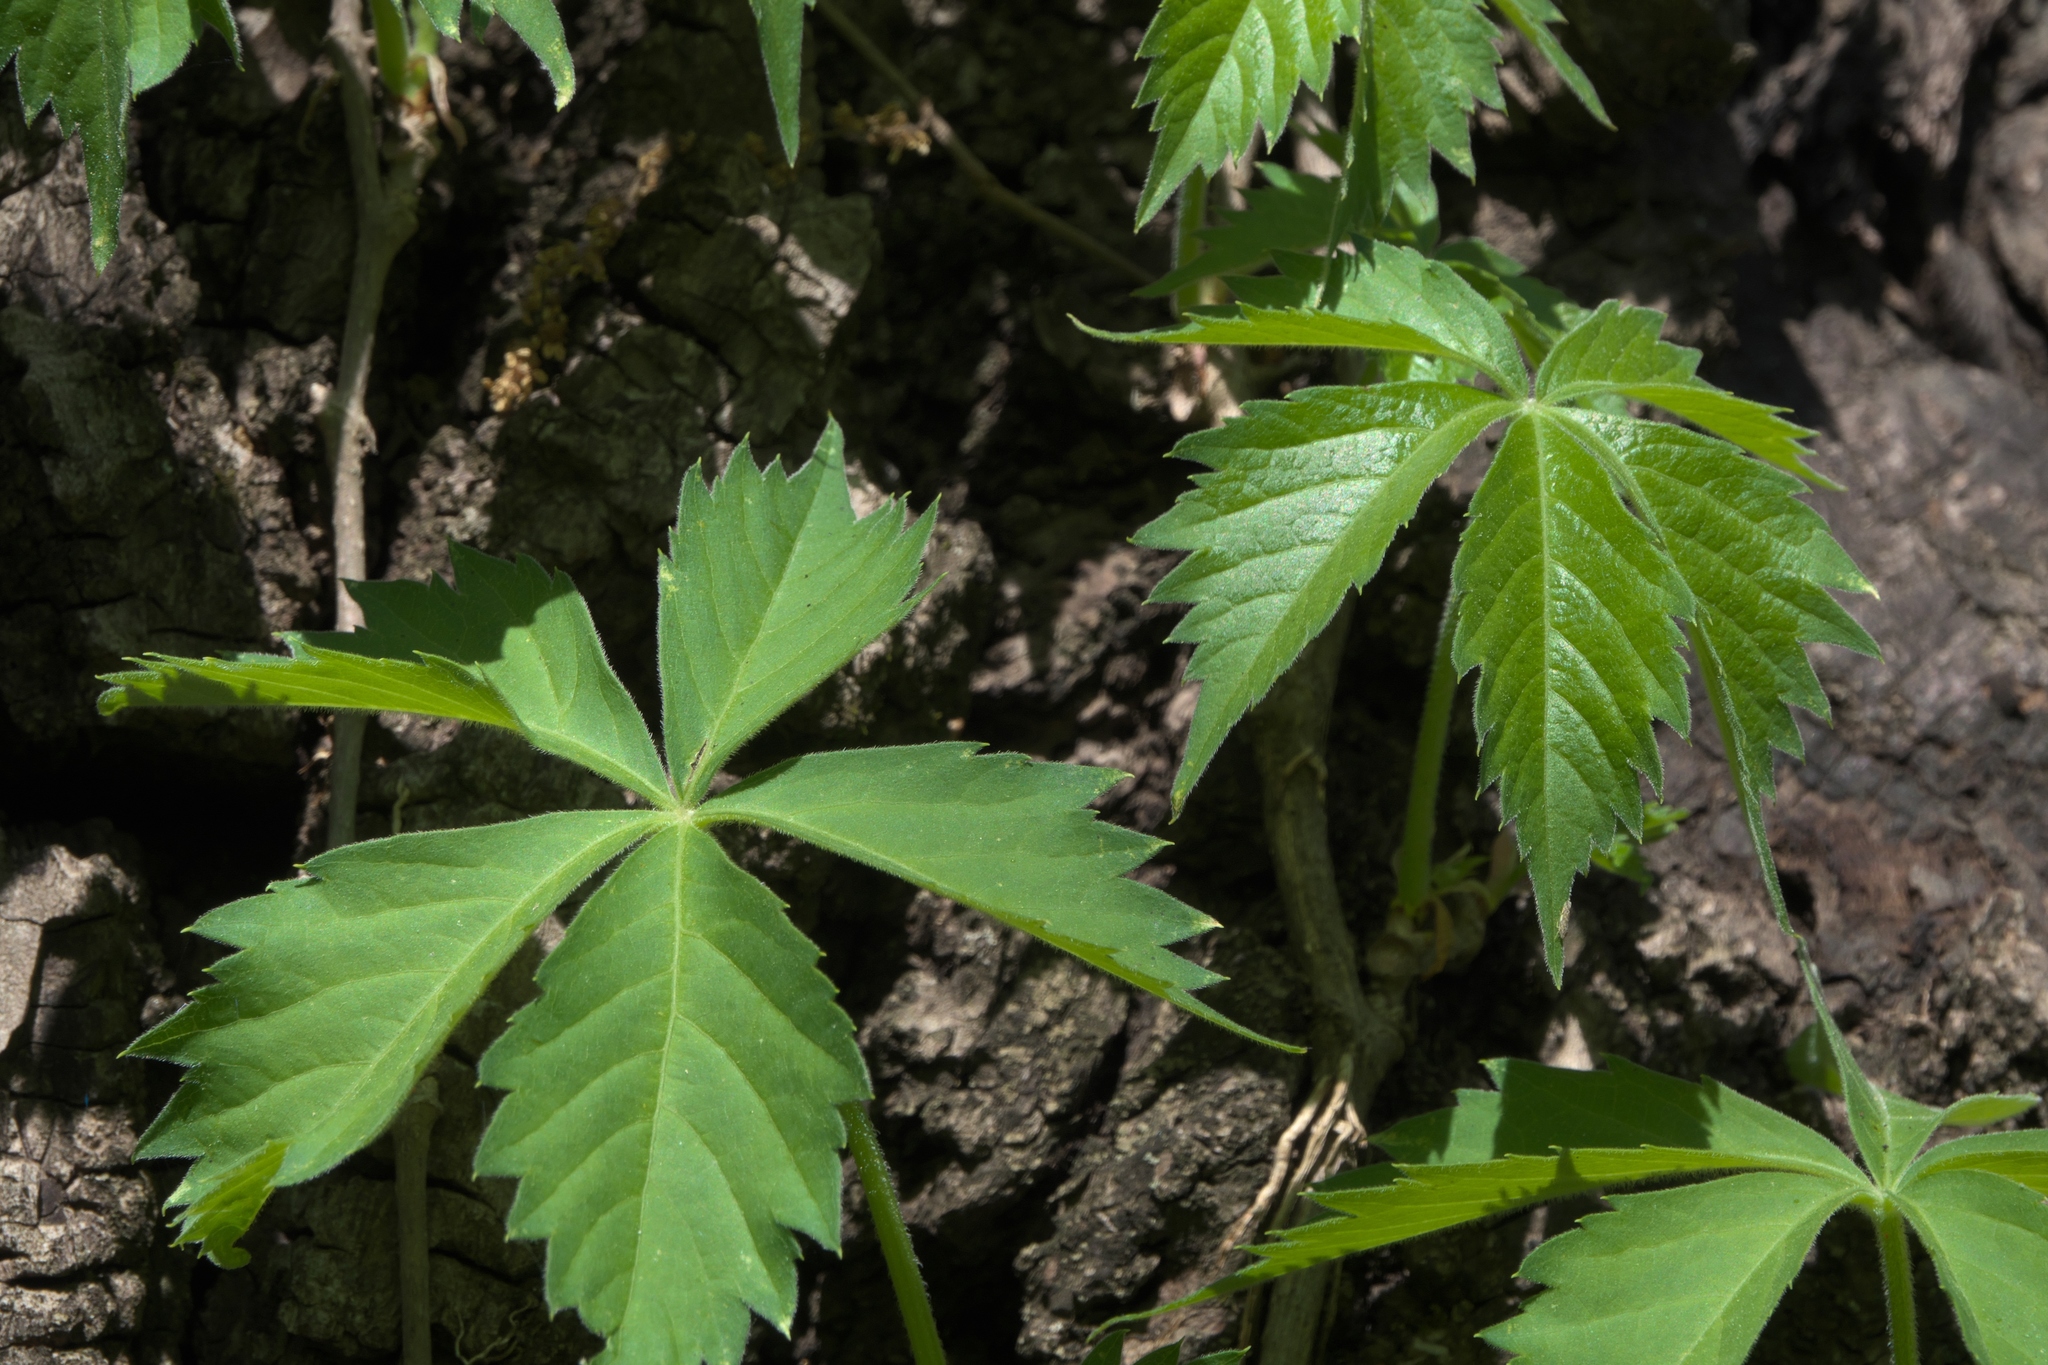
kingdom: Plantae
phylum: Tracheophyta
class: Magnoliopsida
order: Vitales
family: Vitaceae
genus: Parthenocissus
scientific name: Parthenocissus quinquefolia
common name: Virginia-creeper
